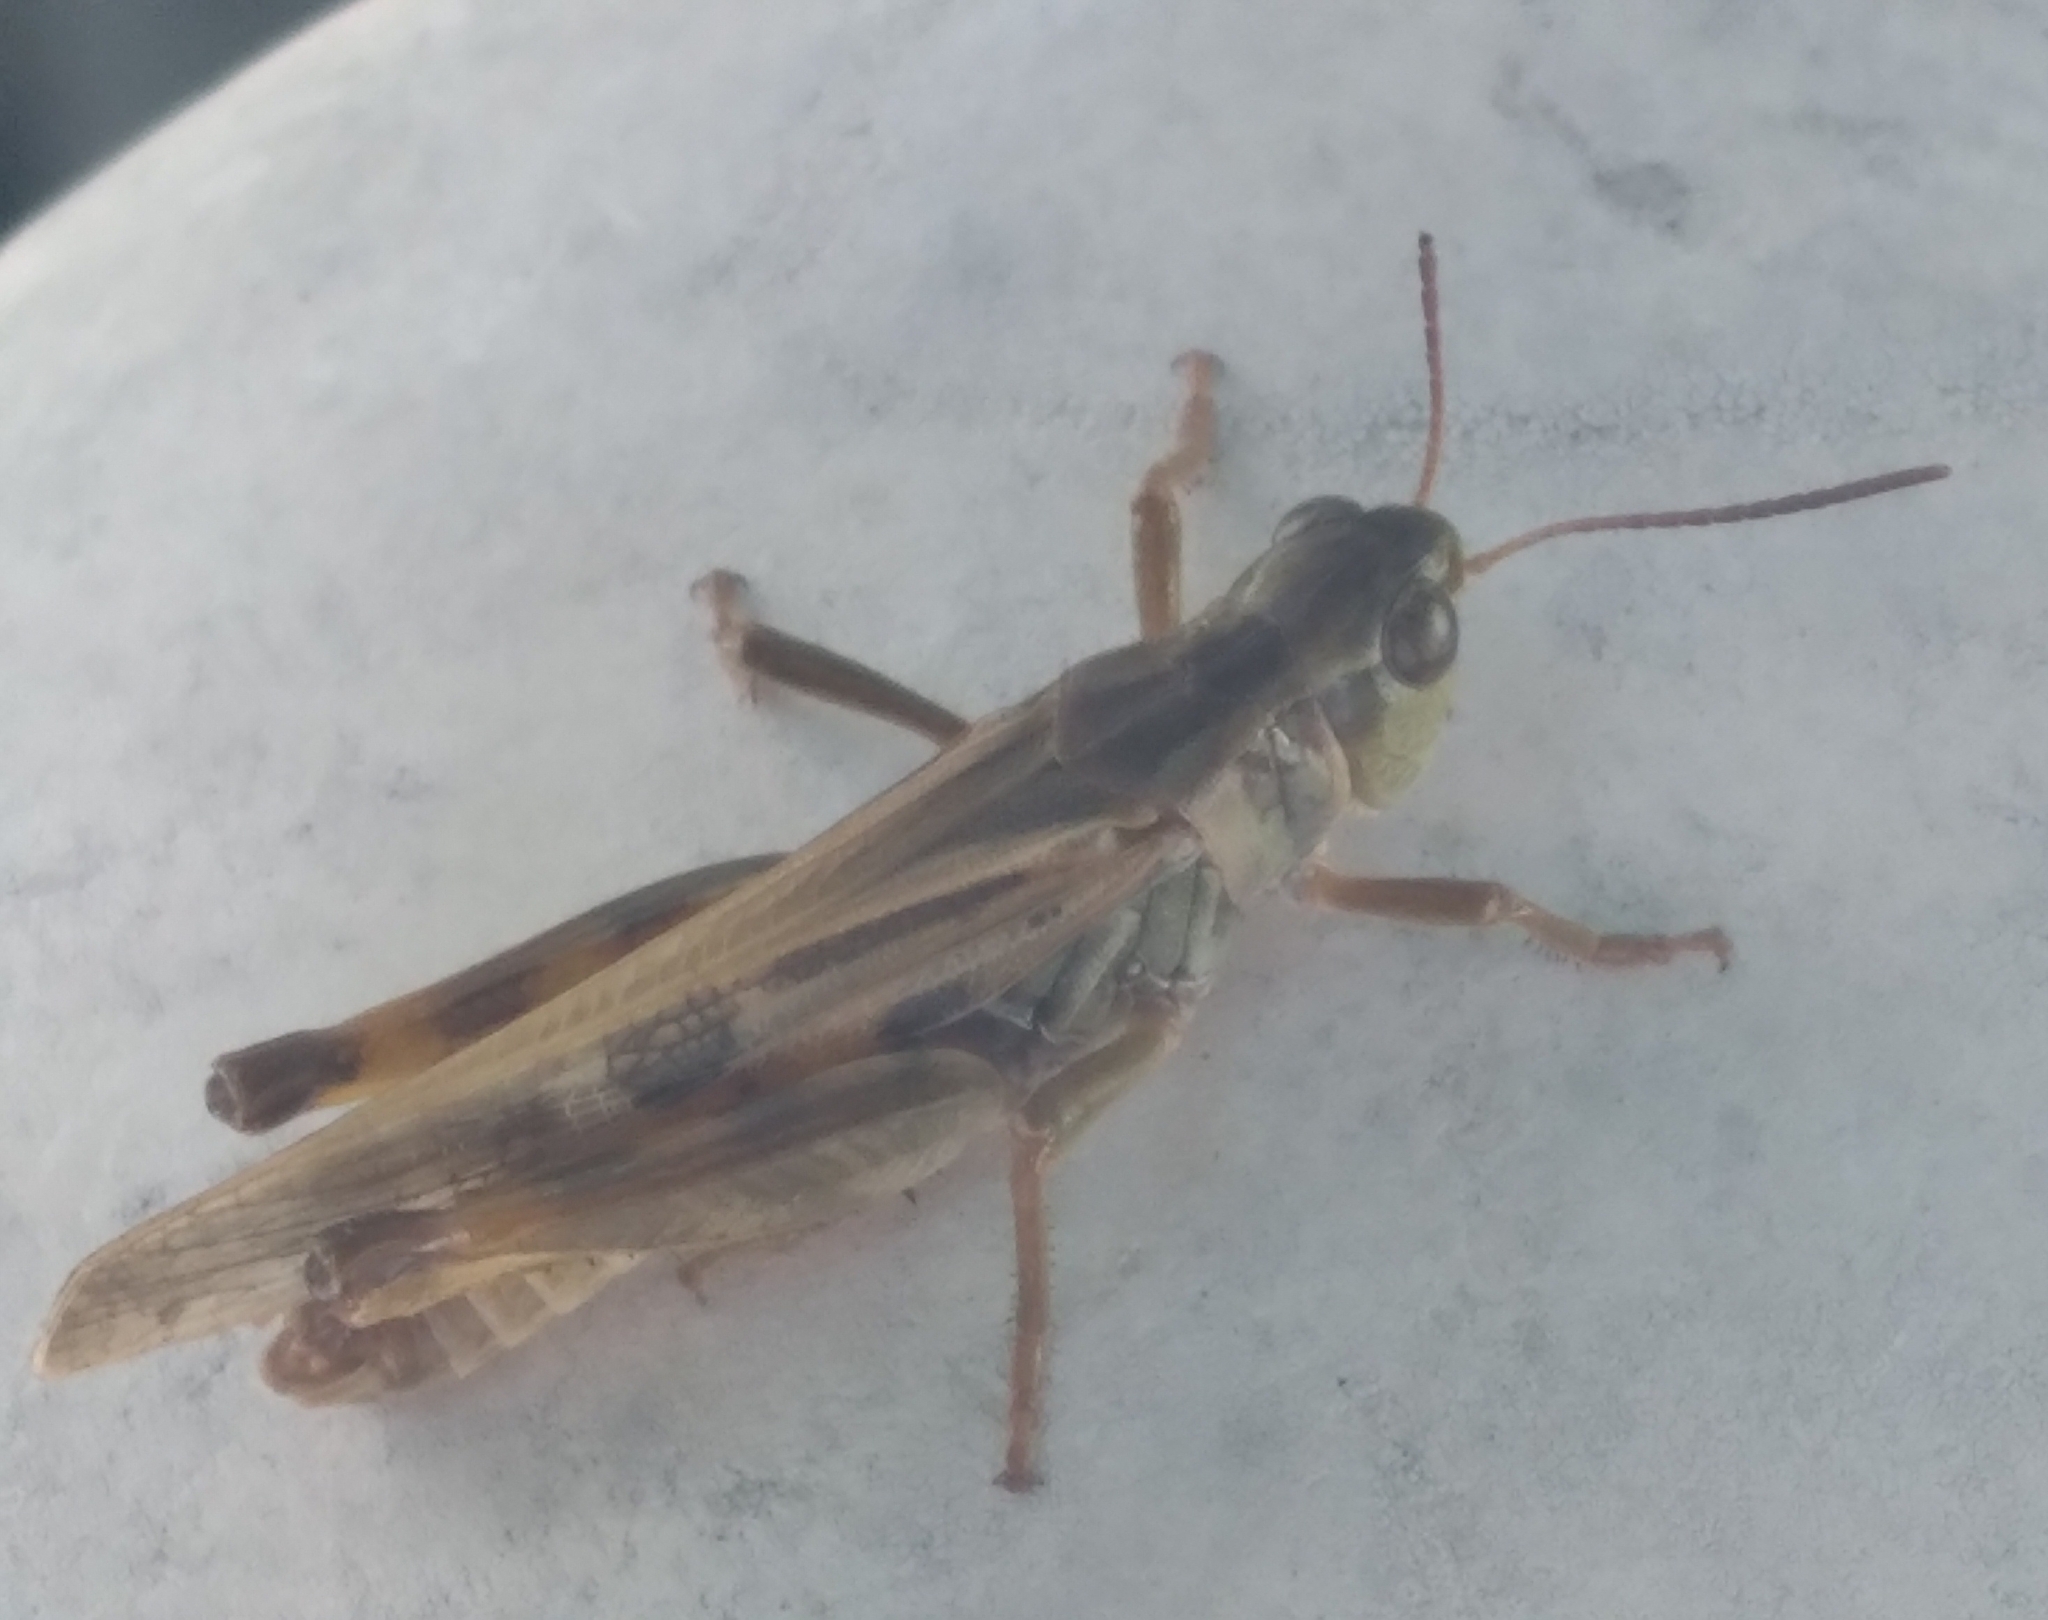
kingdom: Animalia
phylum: Arthropoda
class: Insecta
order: Orthoptera
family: Acrididae
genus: Camnula
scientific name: Camnula pellucida
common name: Clear-winged grasshopper
